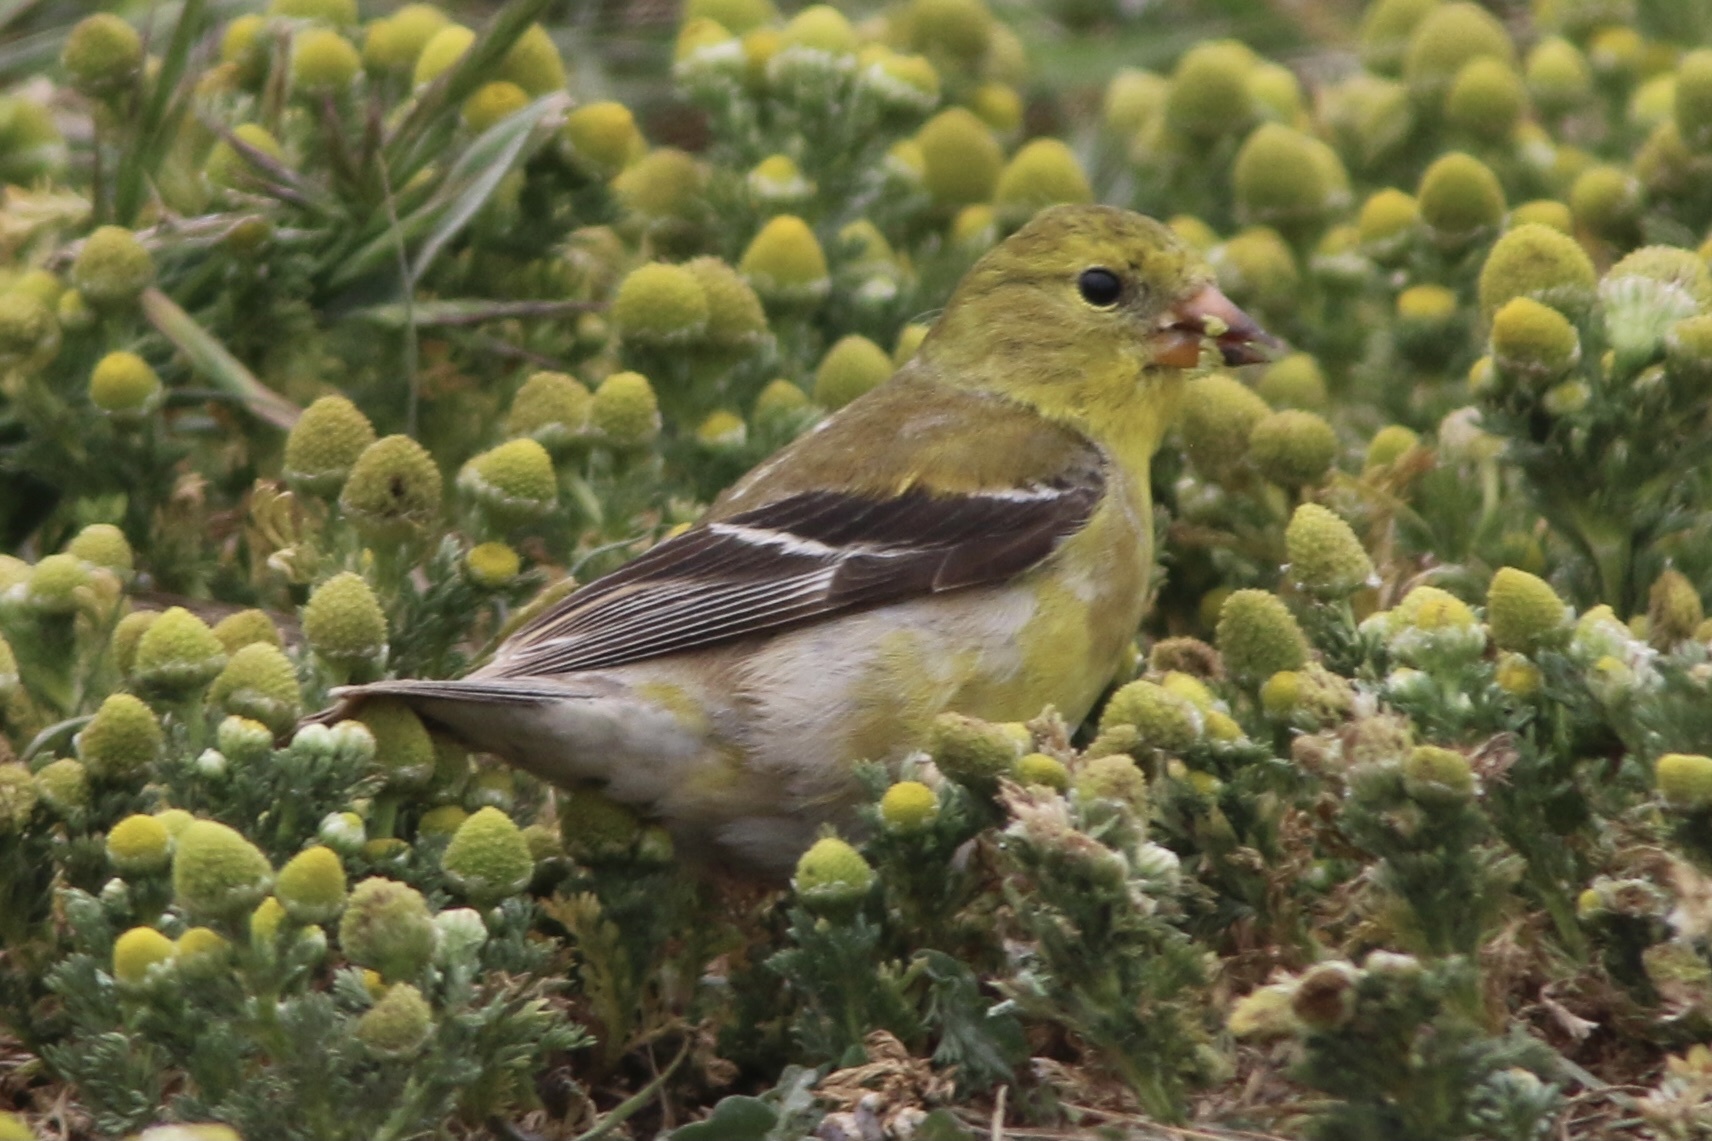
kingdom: Animalia
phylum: Chordata
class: Aves
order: Passeriformes
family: Fringillidae
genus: Spinus
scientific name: Spinus tristis
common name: American goldfinch
